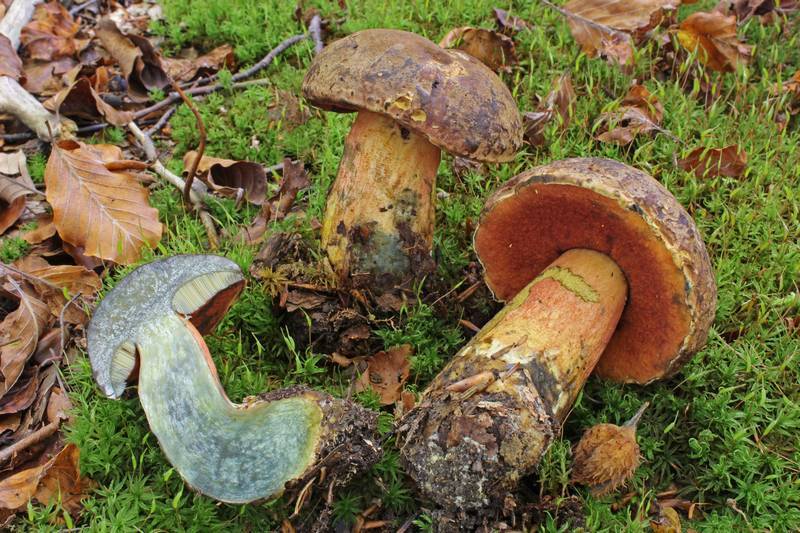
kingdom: Fungi
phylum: Basidiomycota
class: Agaricomycetes
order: Boletales
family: Boletaceae
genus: Neoboletus
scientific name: Neoboletus praestigiator
